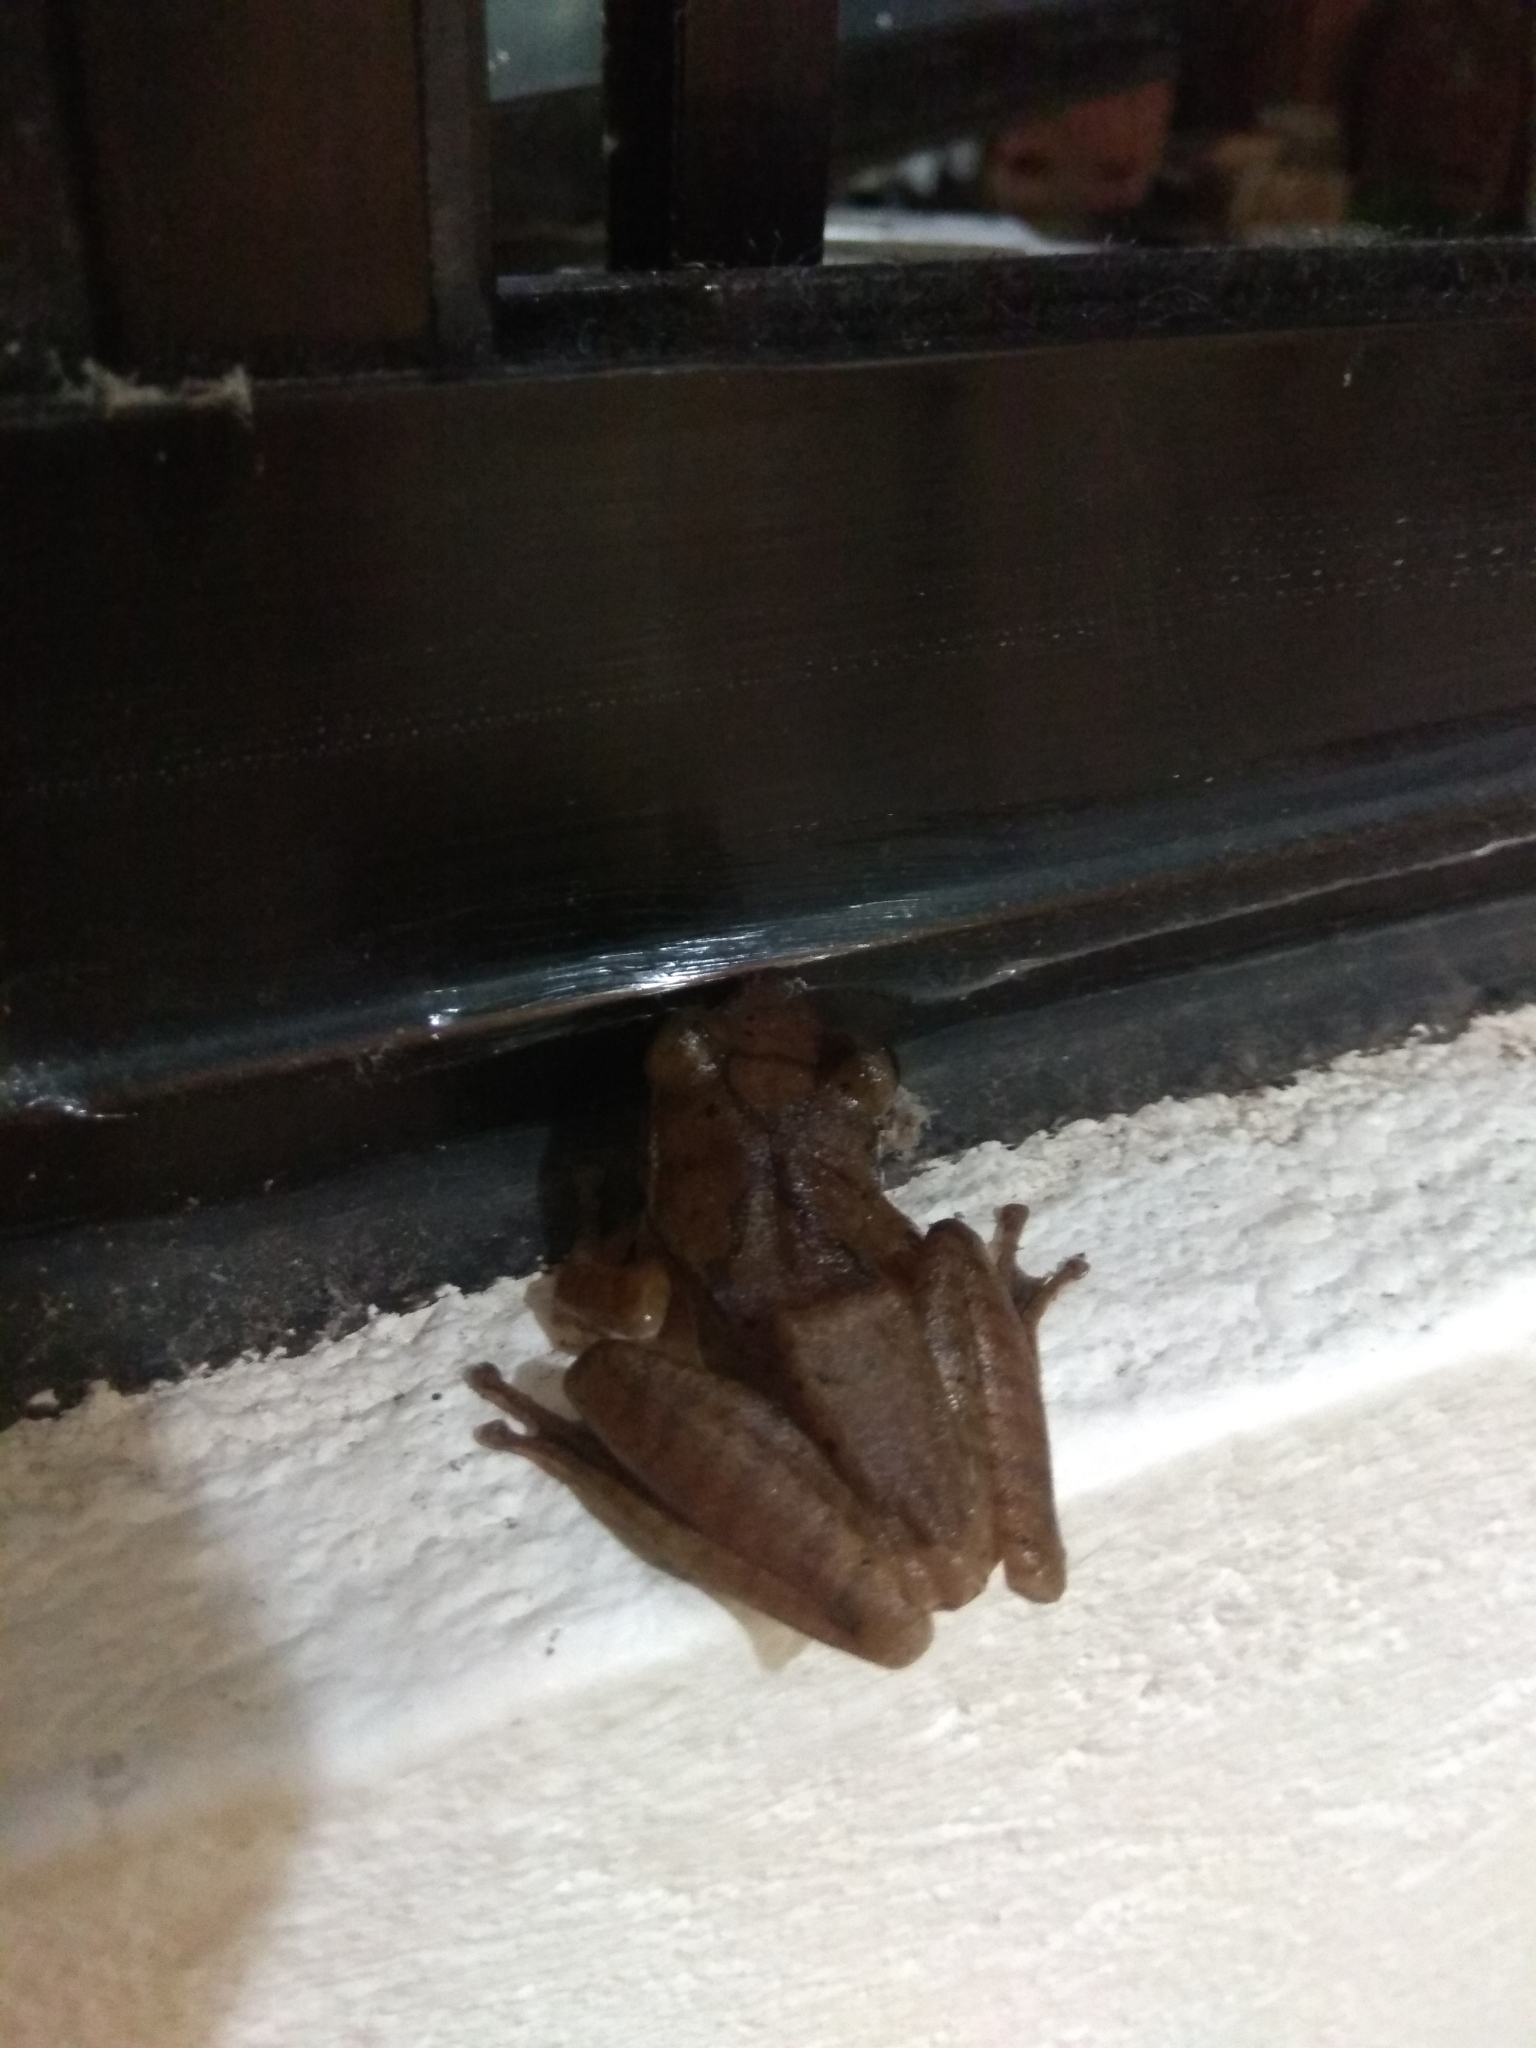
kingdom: Animalia
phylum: Chordata
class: Amphibia
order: Anura
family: Rhacophoridae
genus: Polypedates
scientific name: Polypedates megacephalus
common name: Hong kong whipping frog
